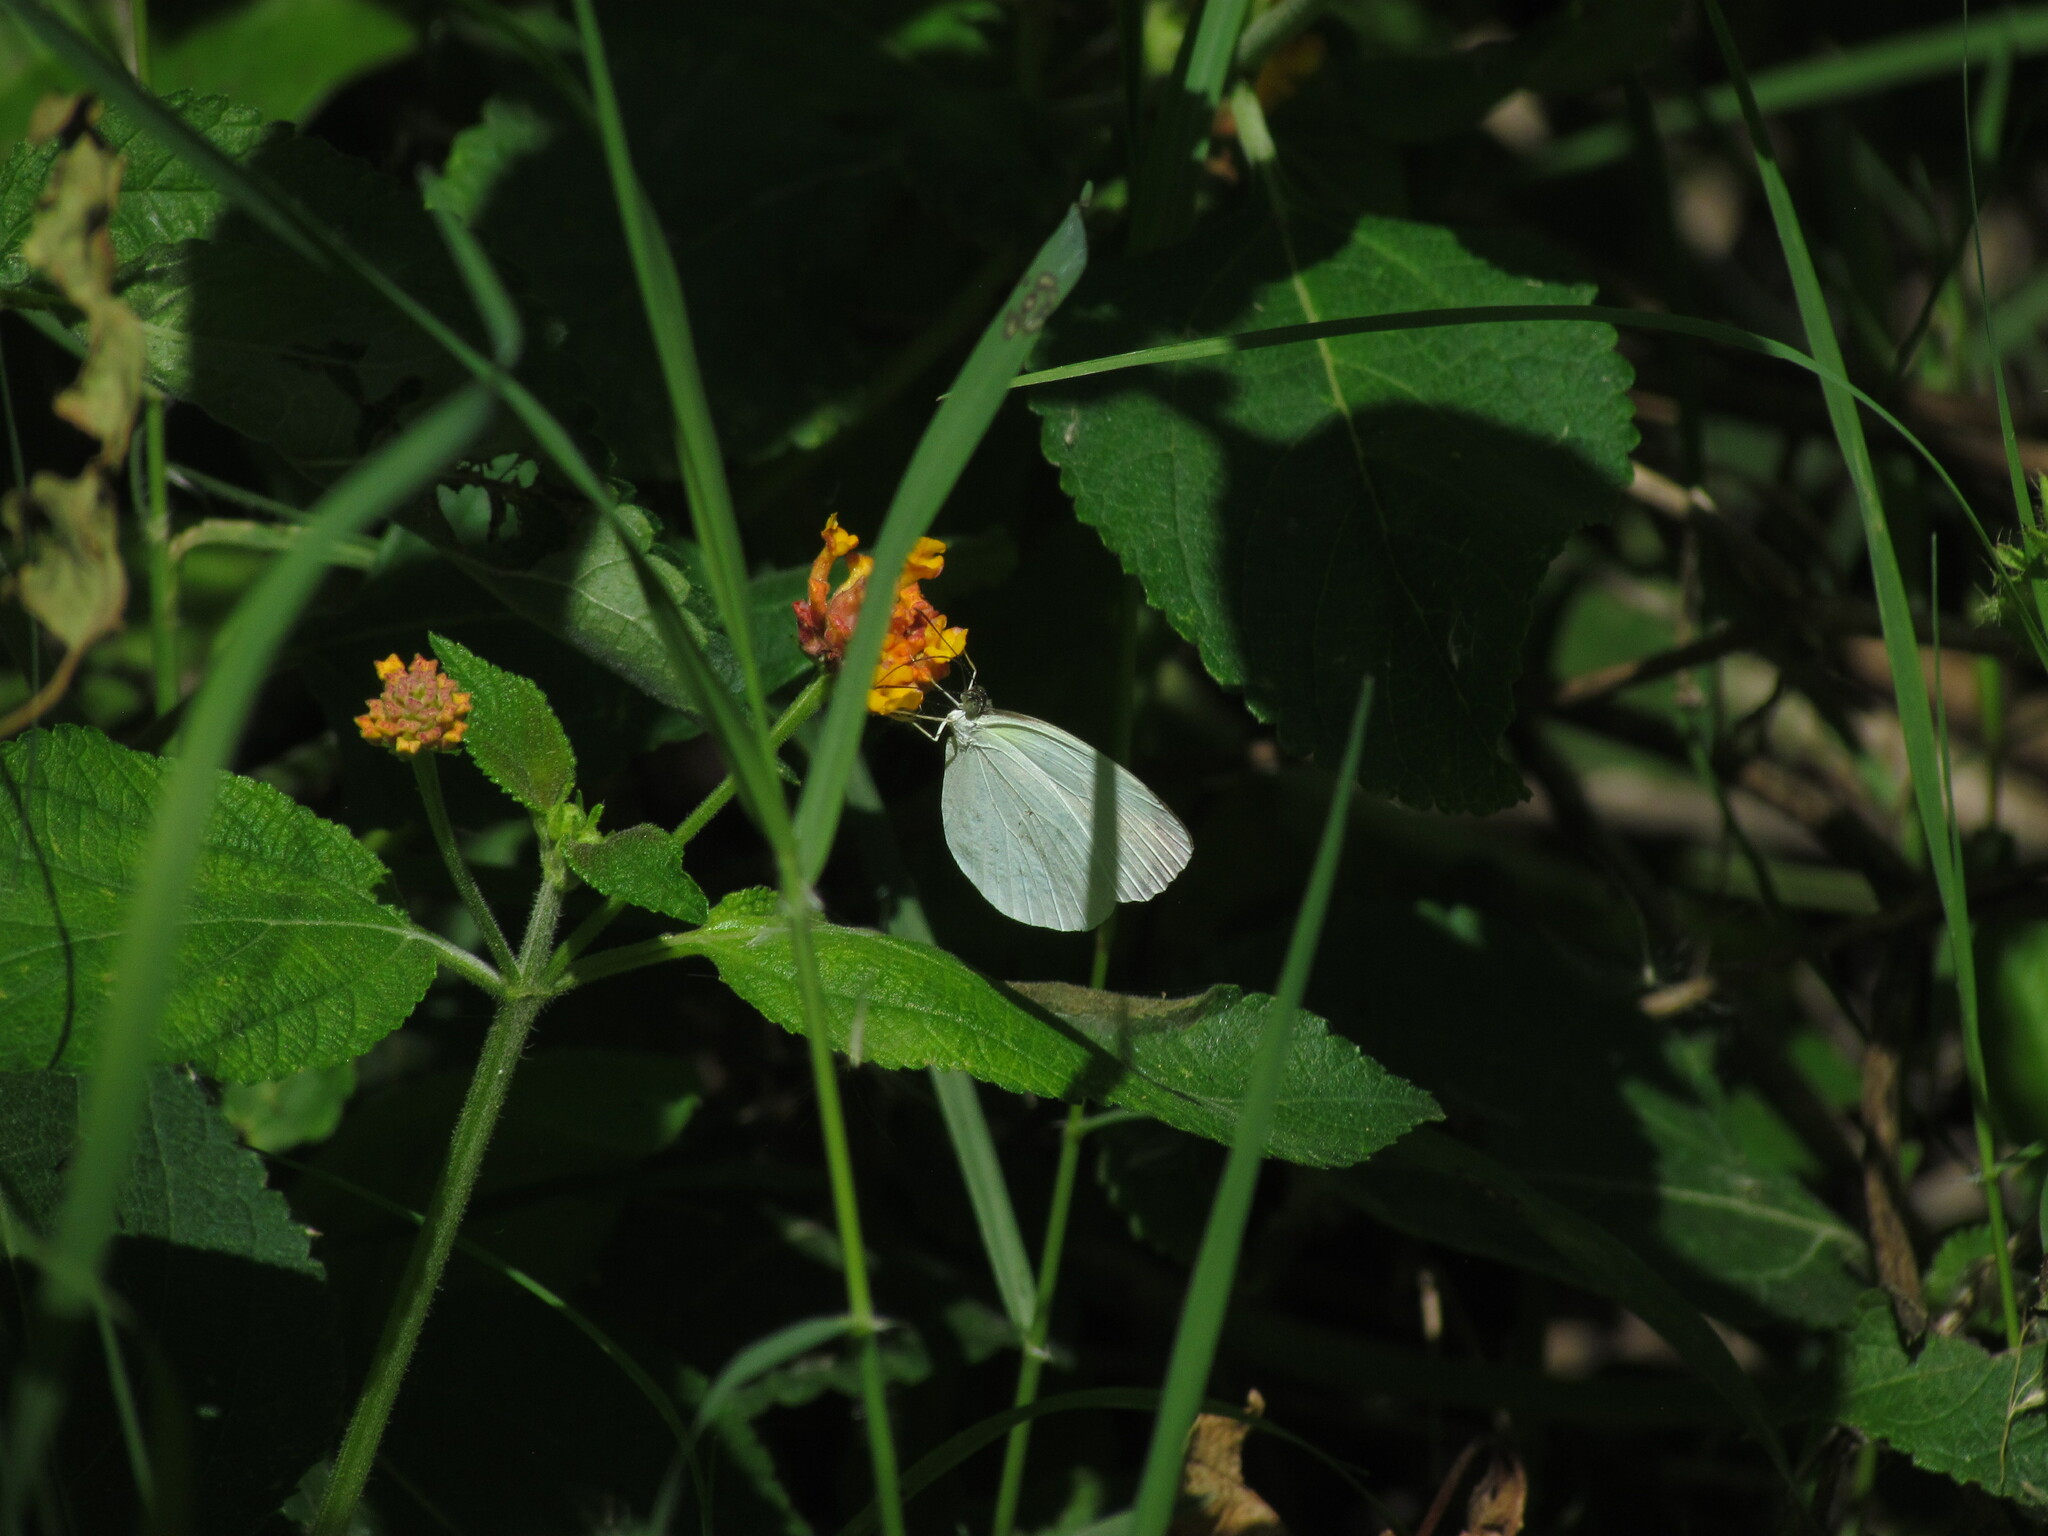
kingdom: Animalia
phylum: Arthropoda
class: Insecta
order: Lepidoptera
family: Pieridae
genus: Abaeis
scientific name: Abaeis albula
